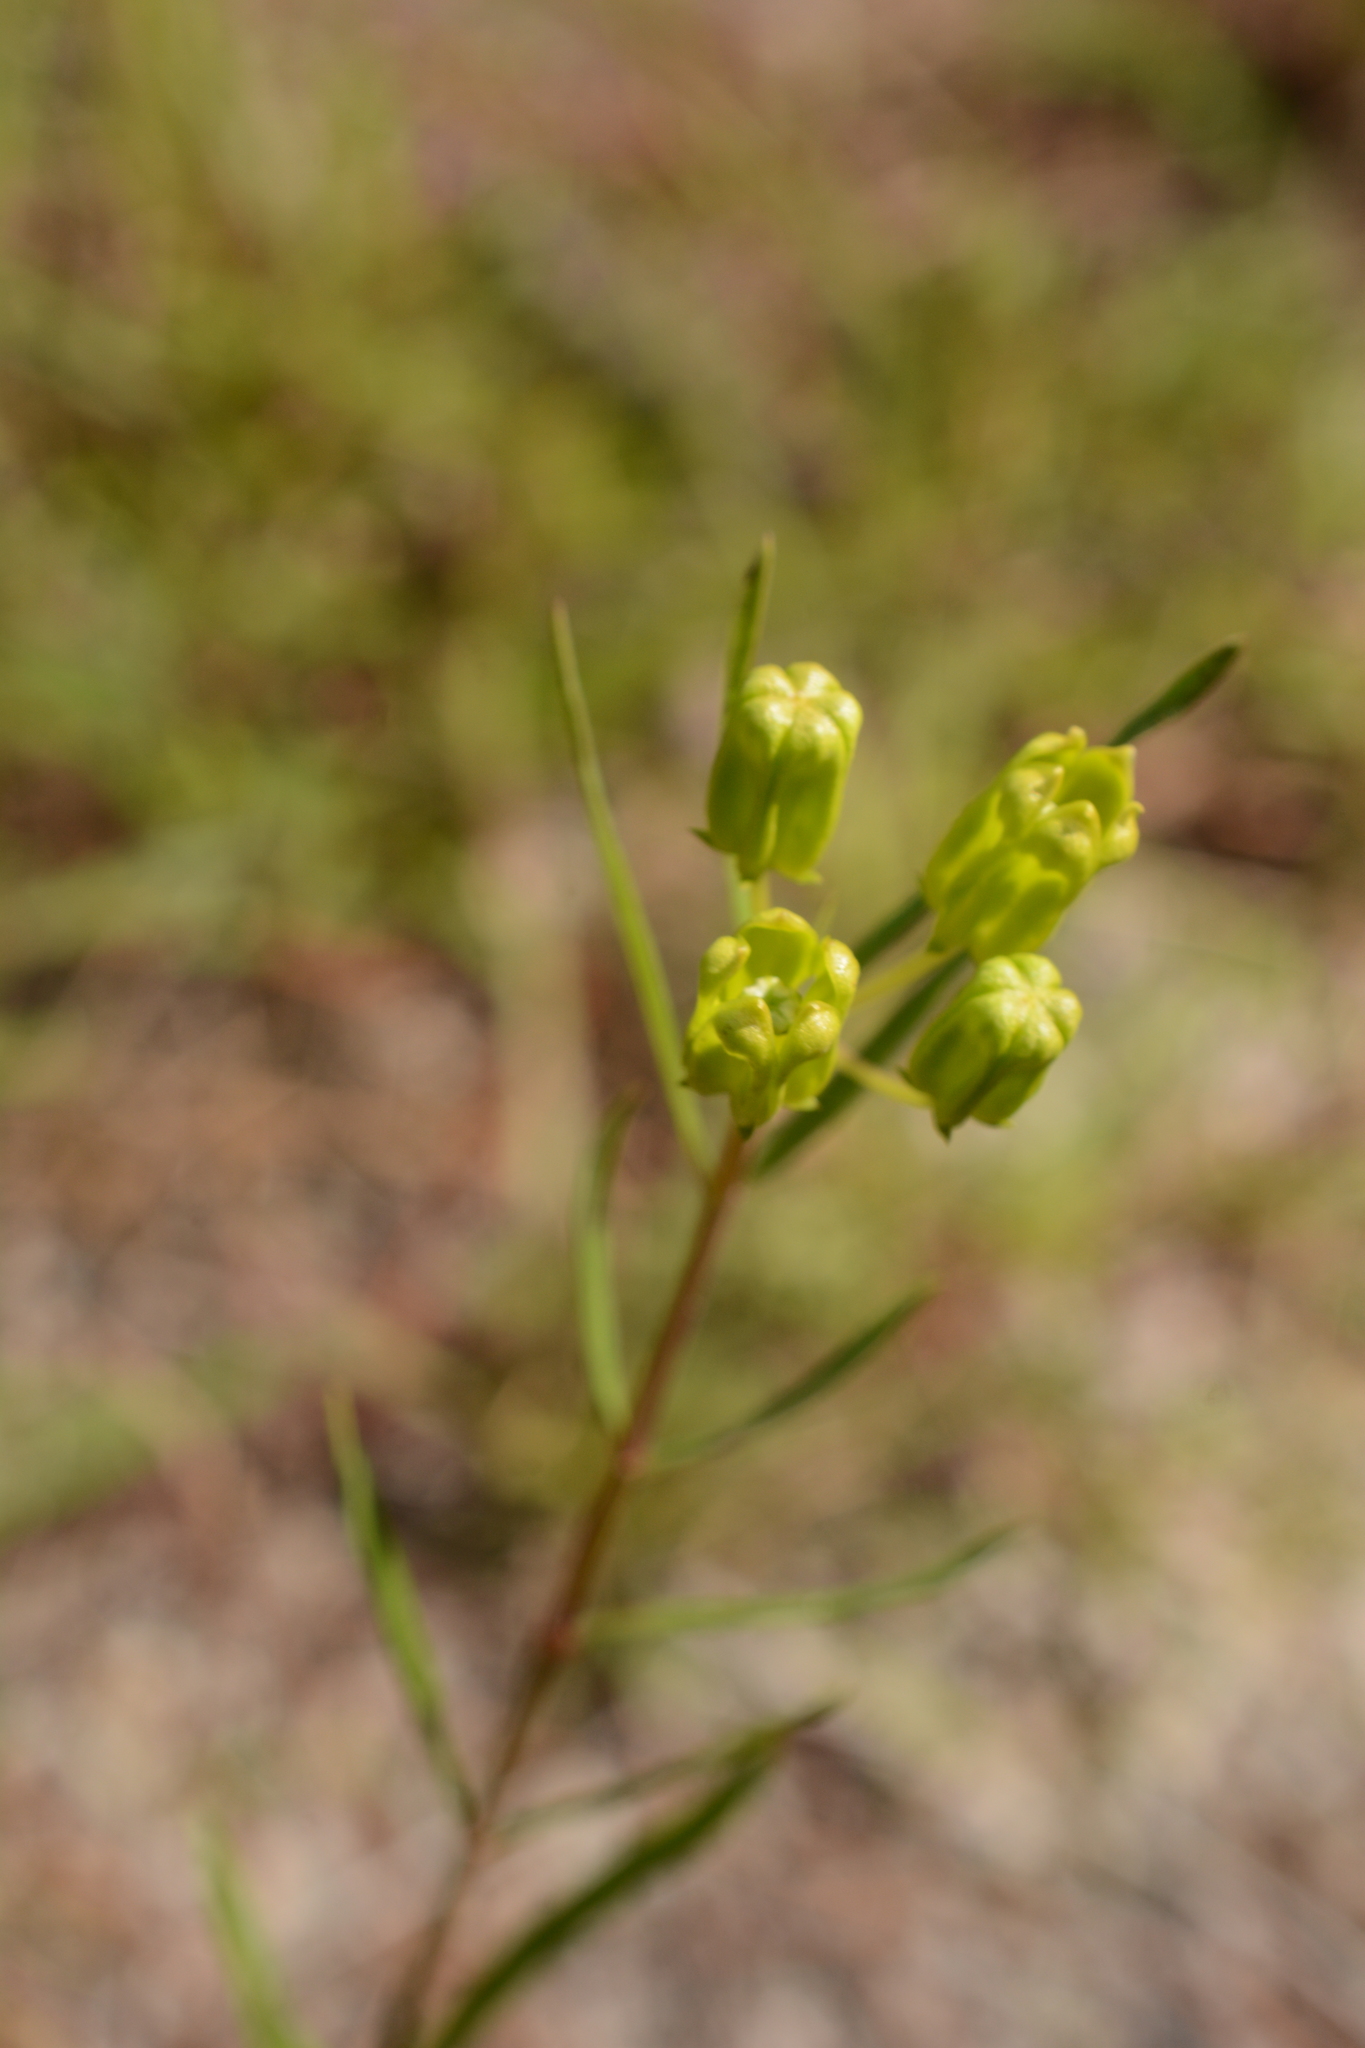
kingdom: Plantae
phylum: Tracheophyta
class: Magnoliopsida
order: Gentianales
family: Apocynaceae
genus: Asclepias
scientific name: Asclepias pedicellata
